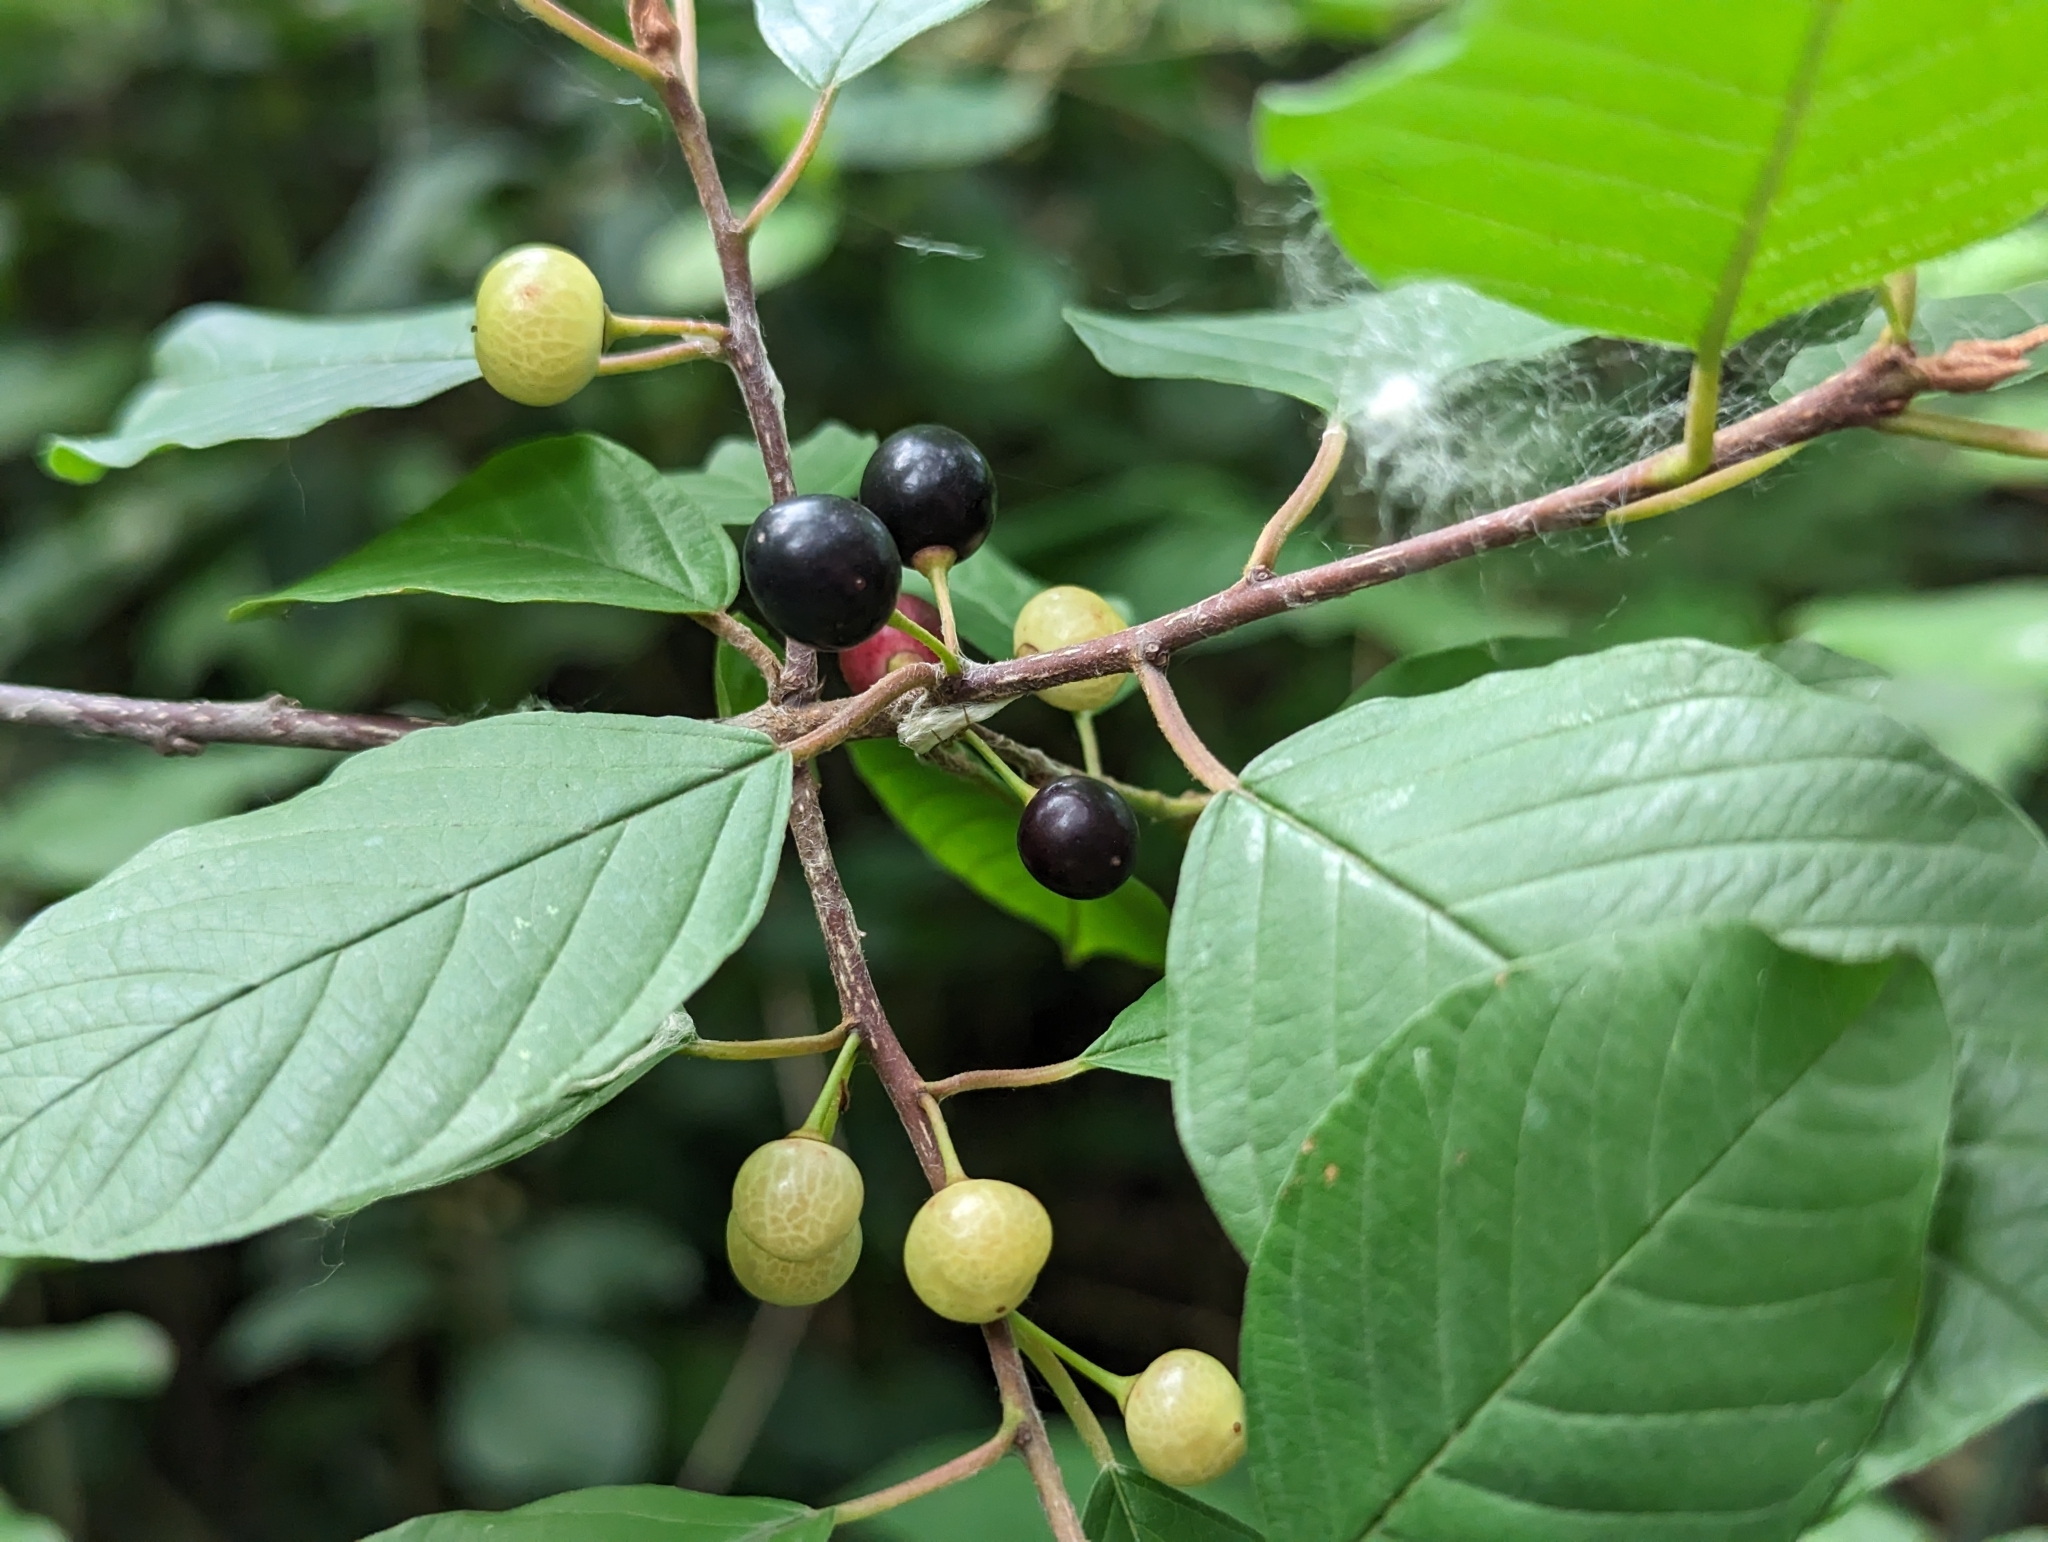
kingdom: Plantae
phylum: Tracheophyta
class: Magnoliopsida
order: Rosales
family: Rhamnaceae
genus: Frangula
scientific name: Frangula alnus
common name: Alder buckthorn
